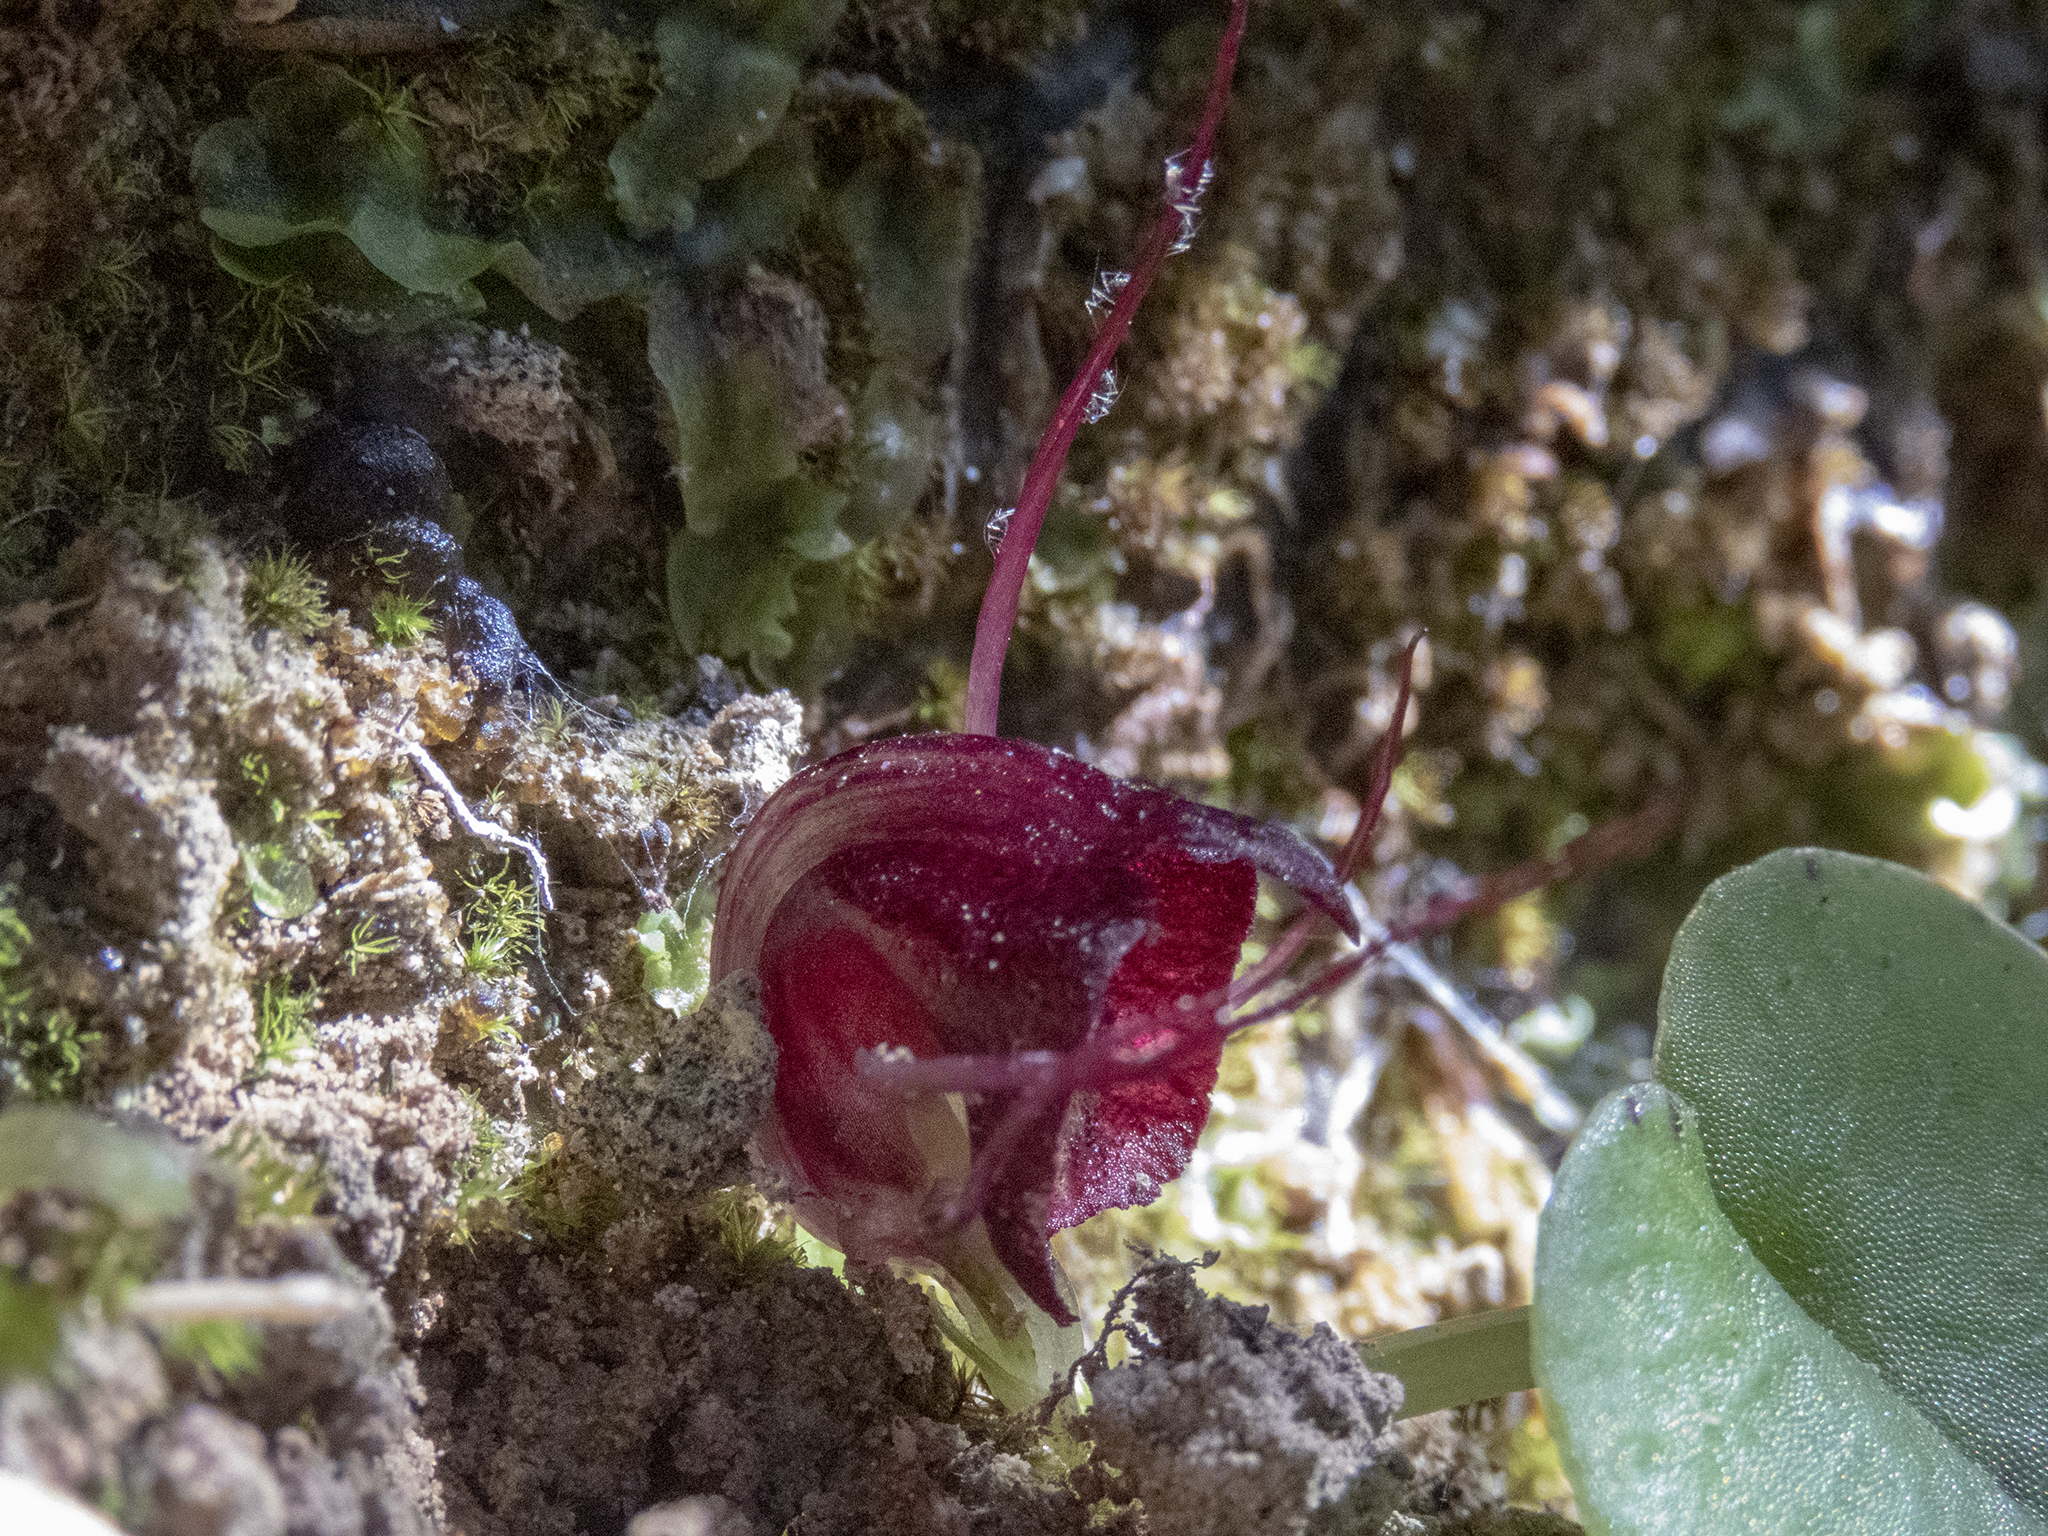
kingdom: Plantae
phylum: Tracheophyta
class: Liliopsida
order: Asparagales
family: Orchidaceae
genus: Corybas
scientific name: Corybas macranthus
